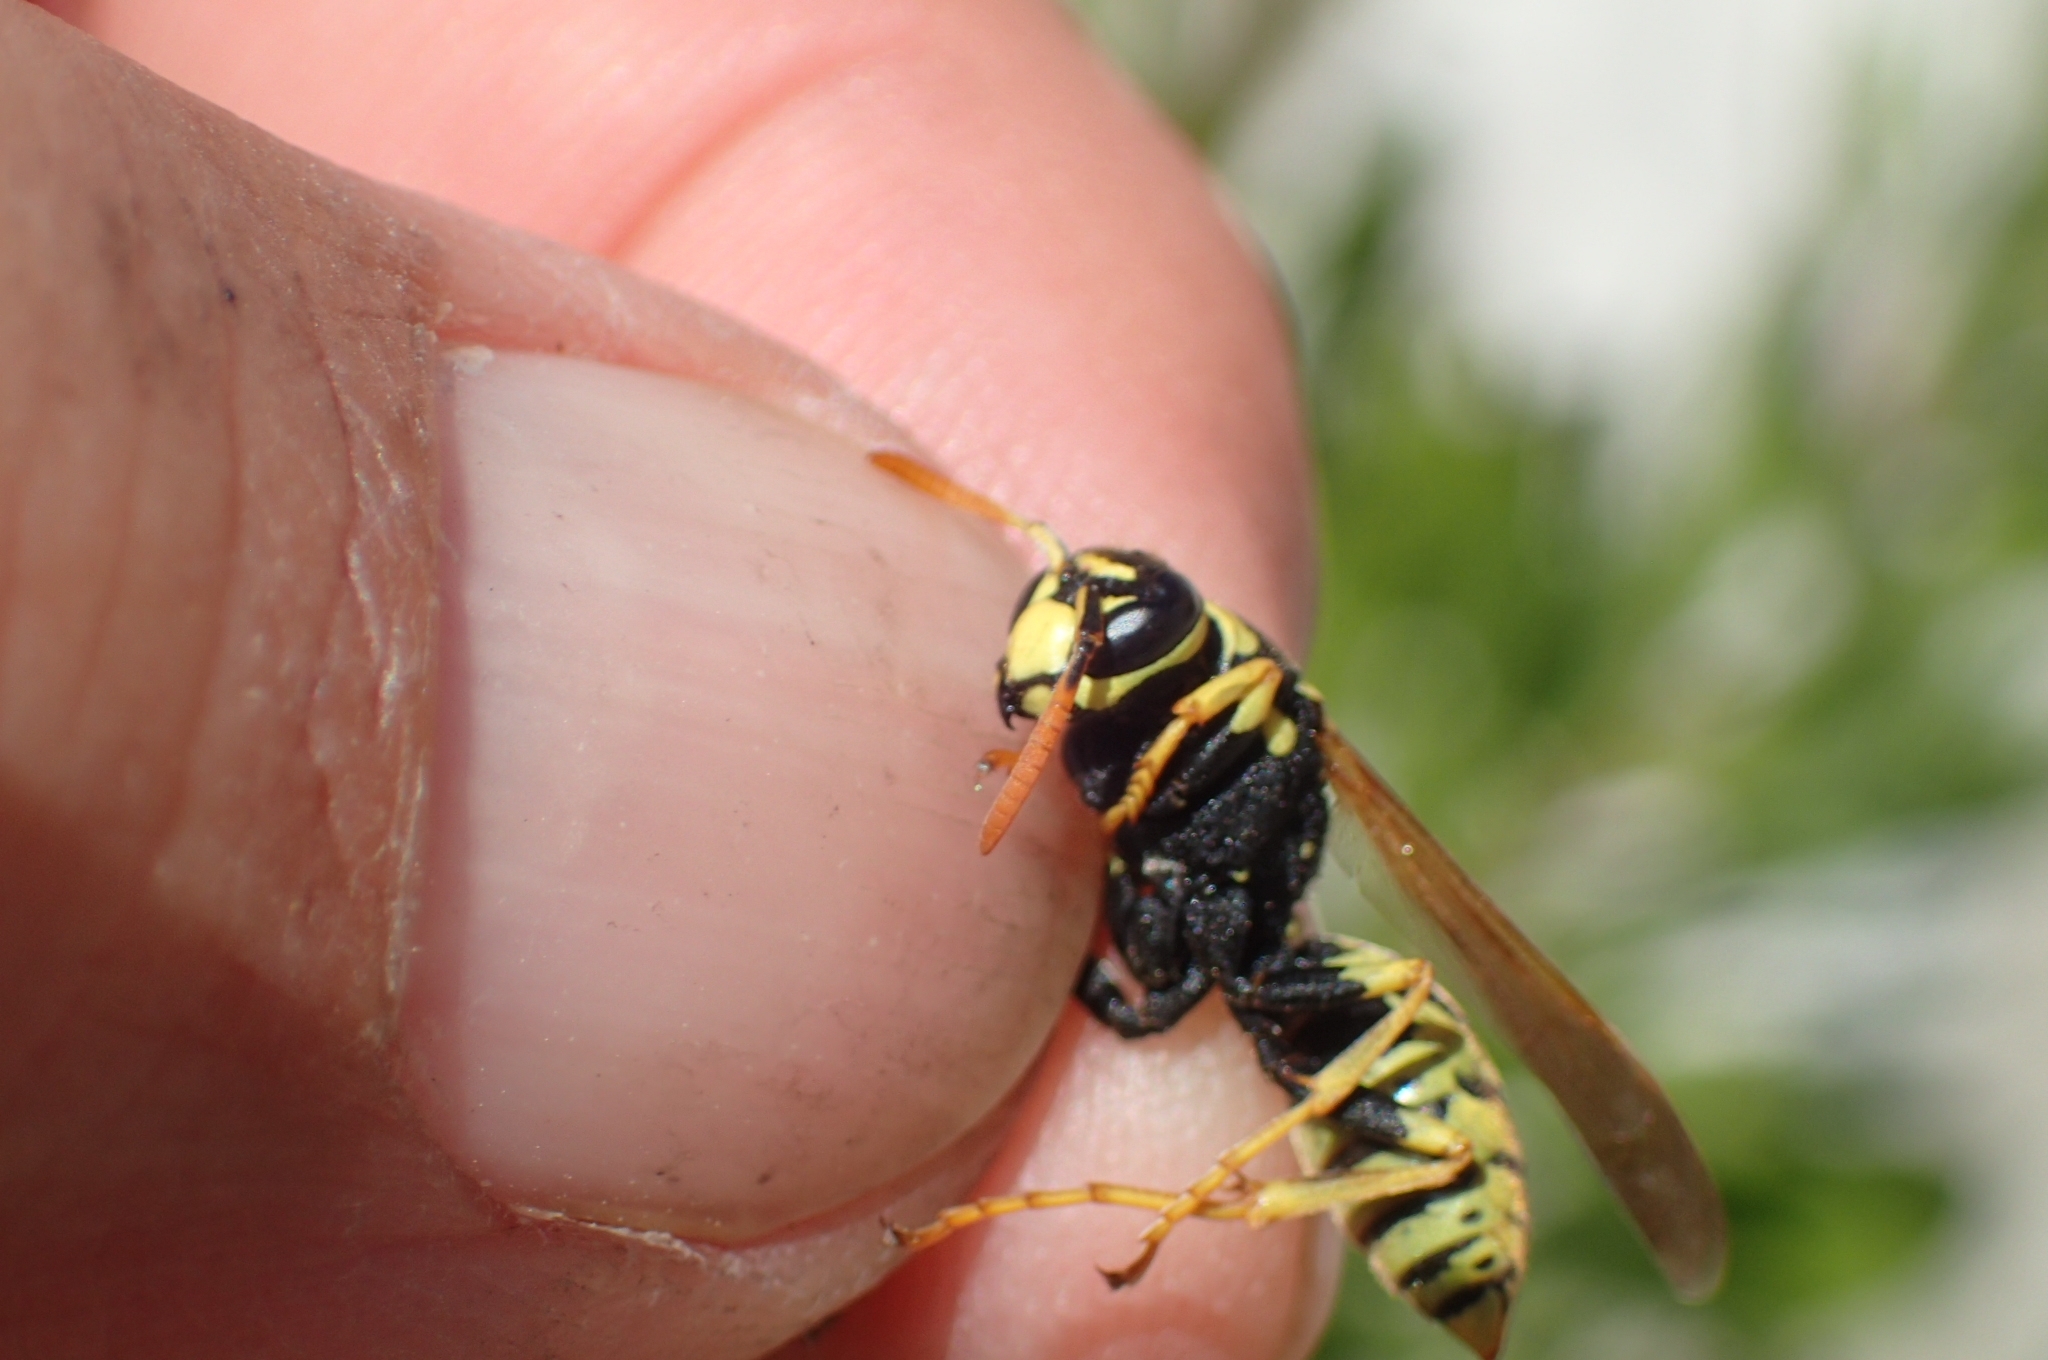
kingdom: Animalia
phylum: Arthropoda
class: Insecta
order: Hymenoptera
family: Eumenidae
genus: Polistes
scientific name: Polistes dominula
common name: Paper wasp
